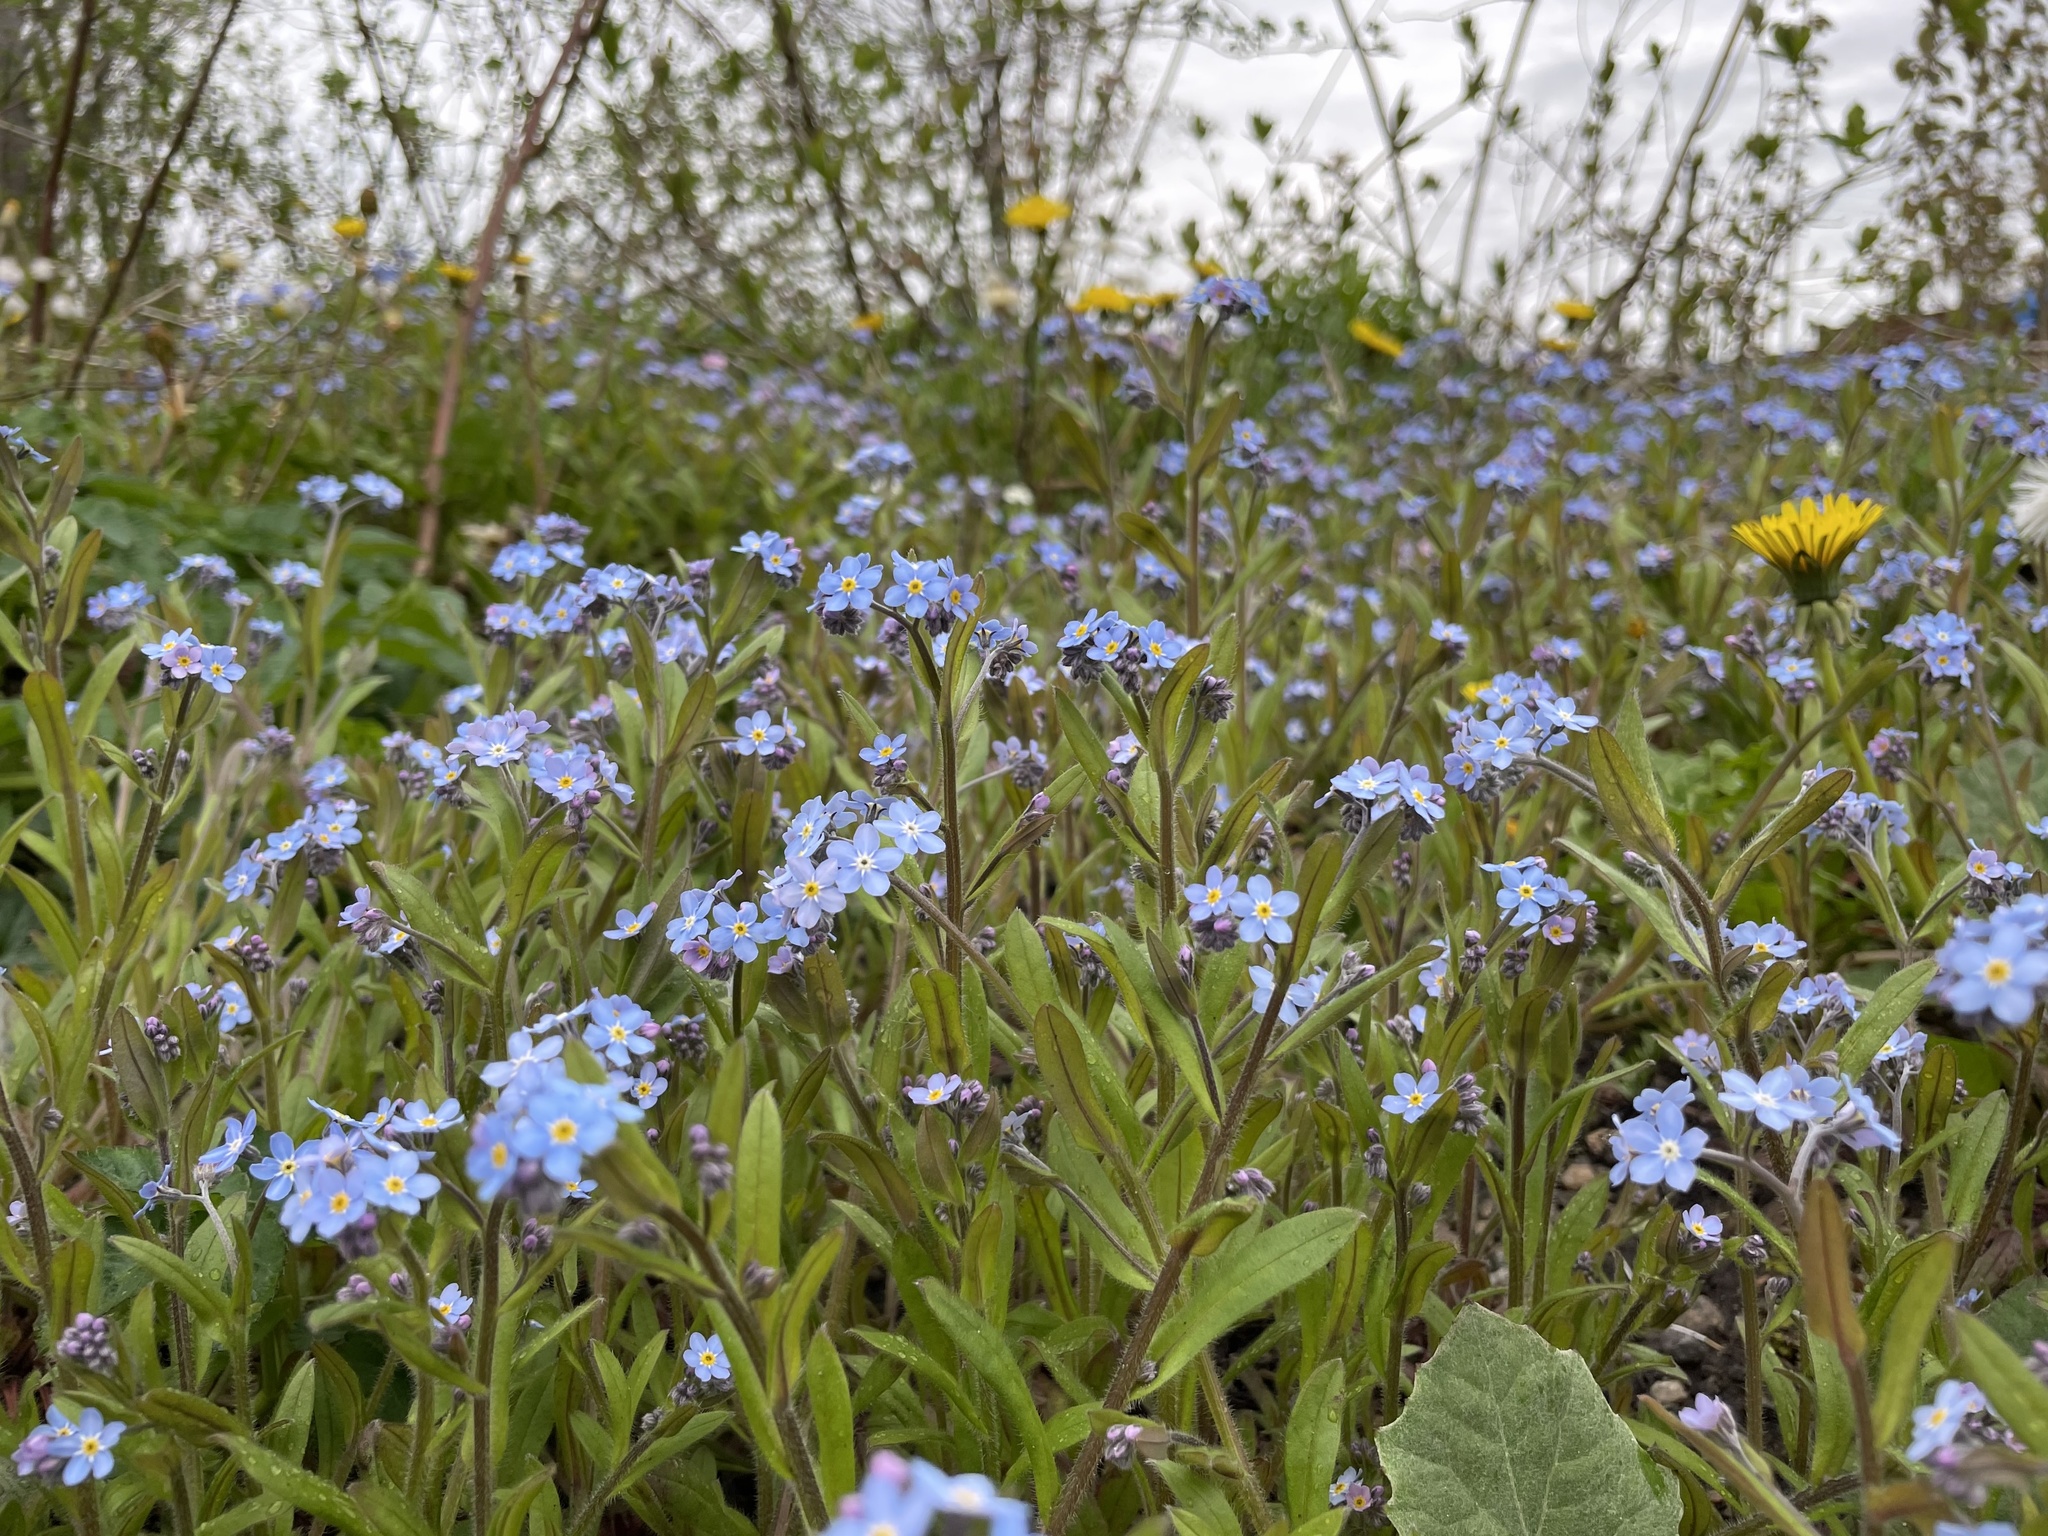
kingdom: Plantae
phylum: Tracheophyta
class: Magnoliopsida
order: Boraginales
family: Boraginaceae
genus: Myosotis
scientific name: Myosotis arvensis
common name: Field forget-me-not
